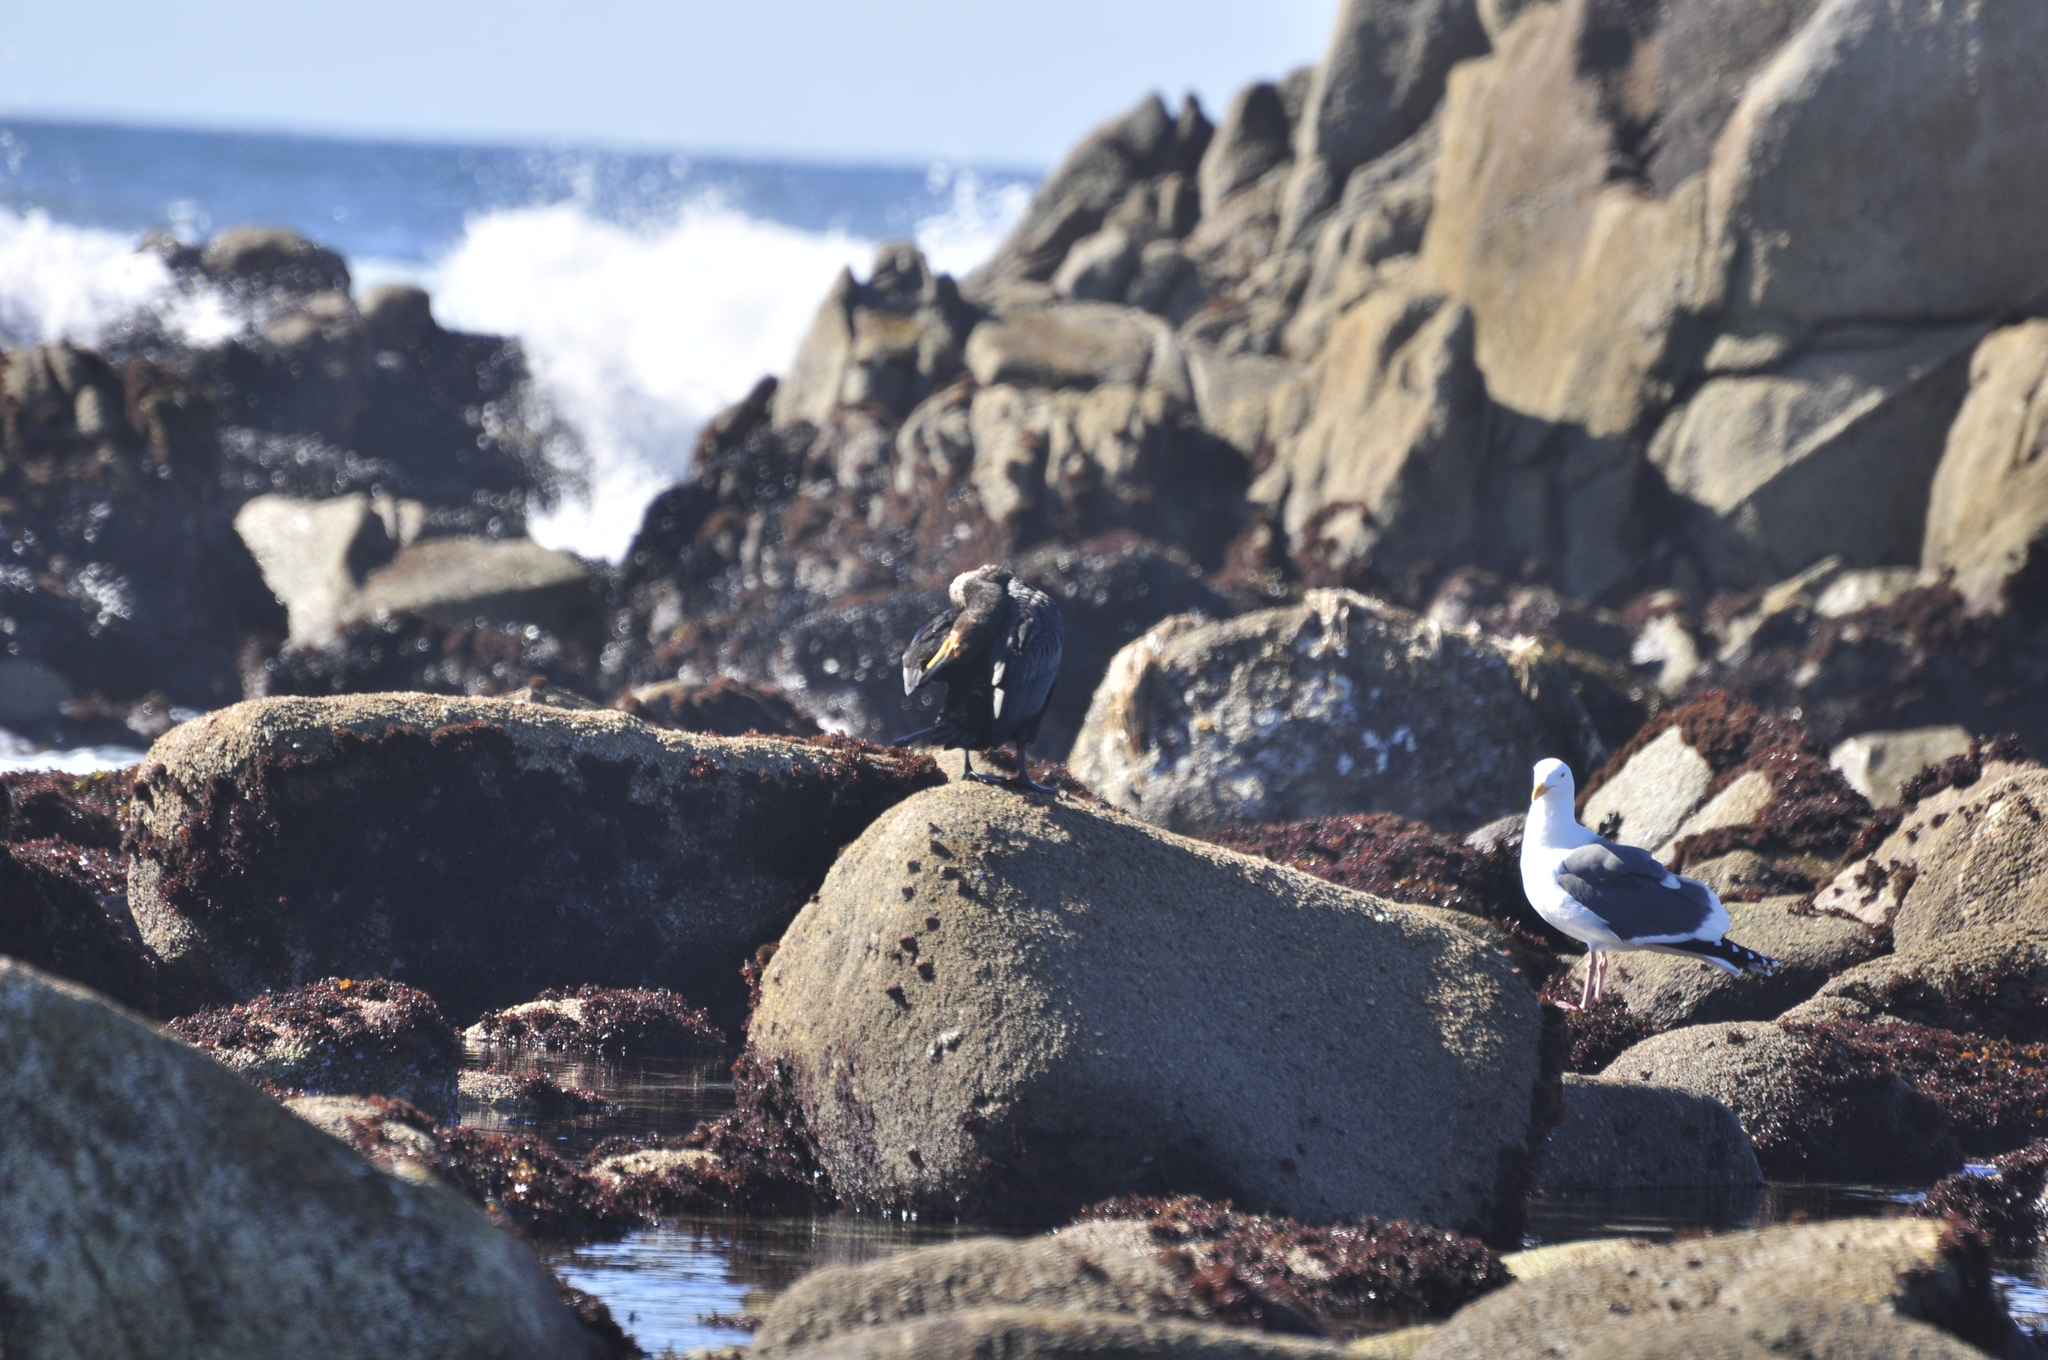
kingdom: Animalia
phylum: Chordata
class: Aves
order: Suliformes
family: Phalacrocoracidae
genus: Phalacrocorax
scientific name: Phalacrocorax auritus
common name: Double-crested cormorant
